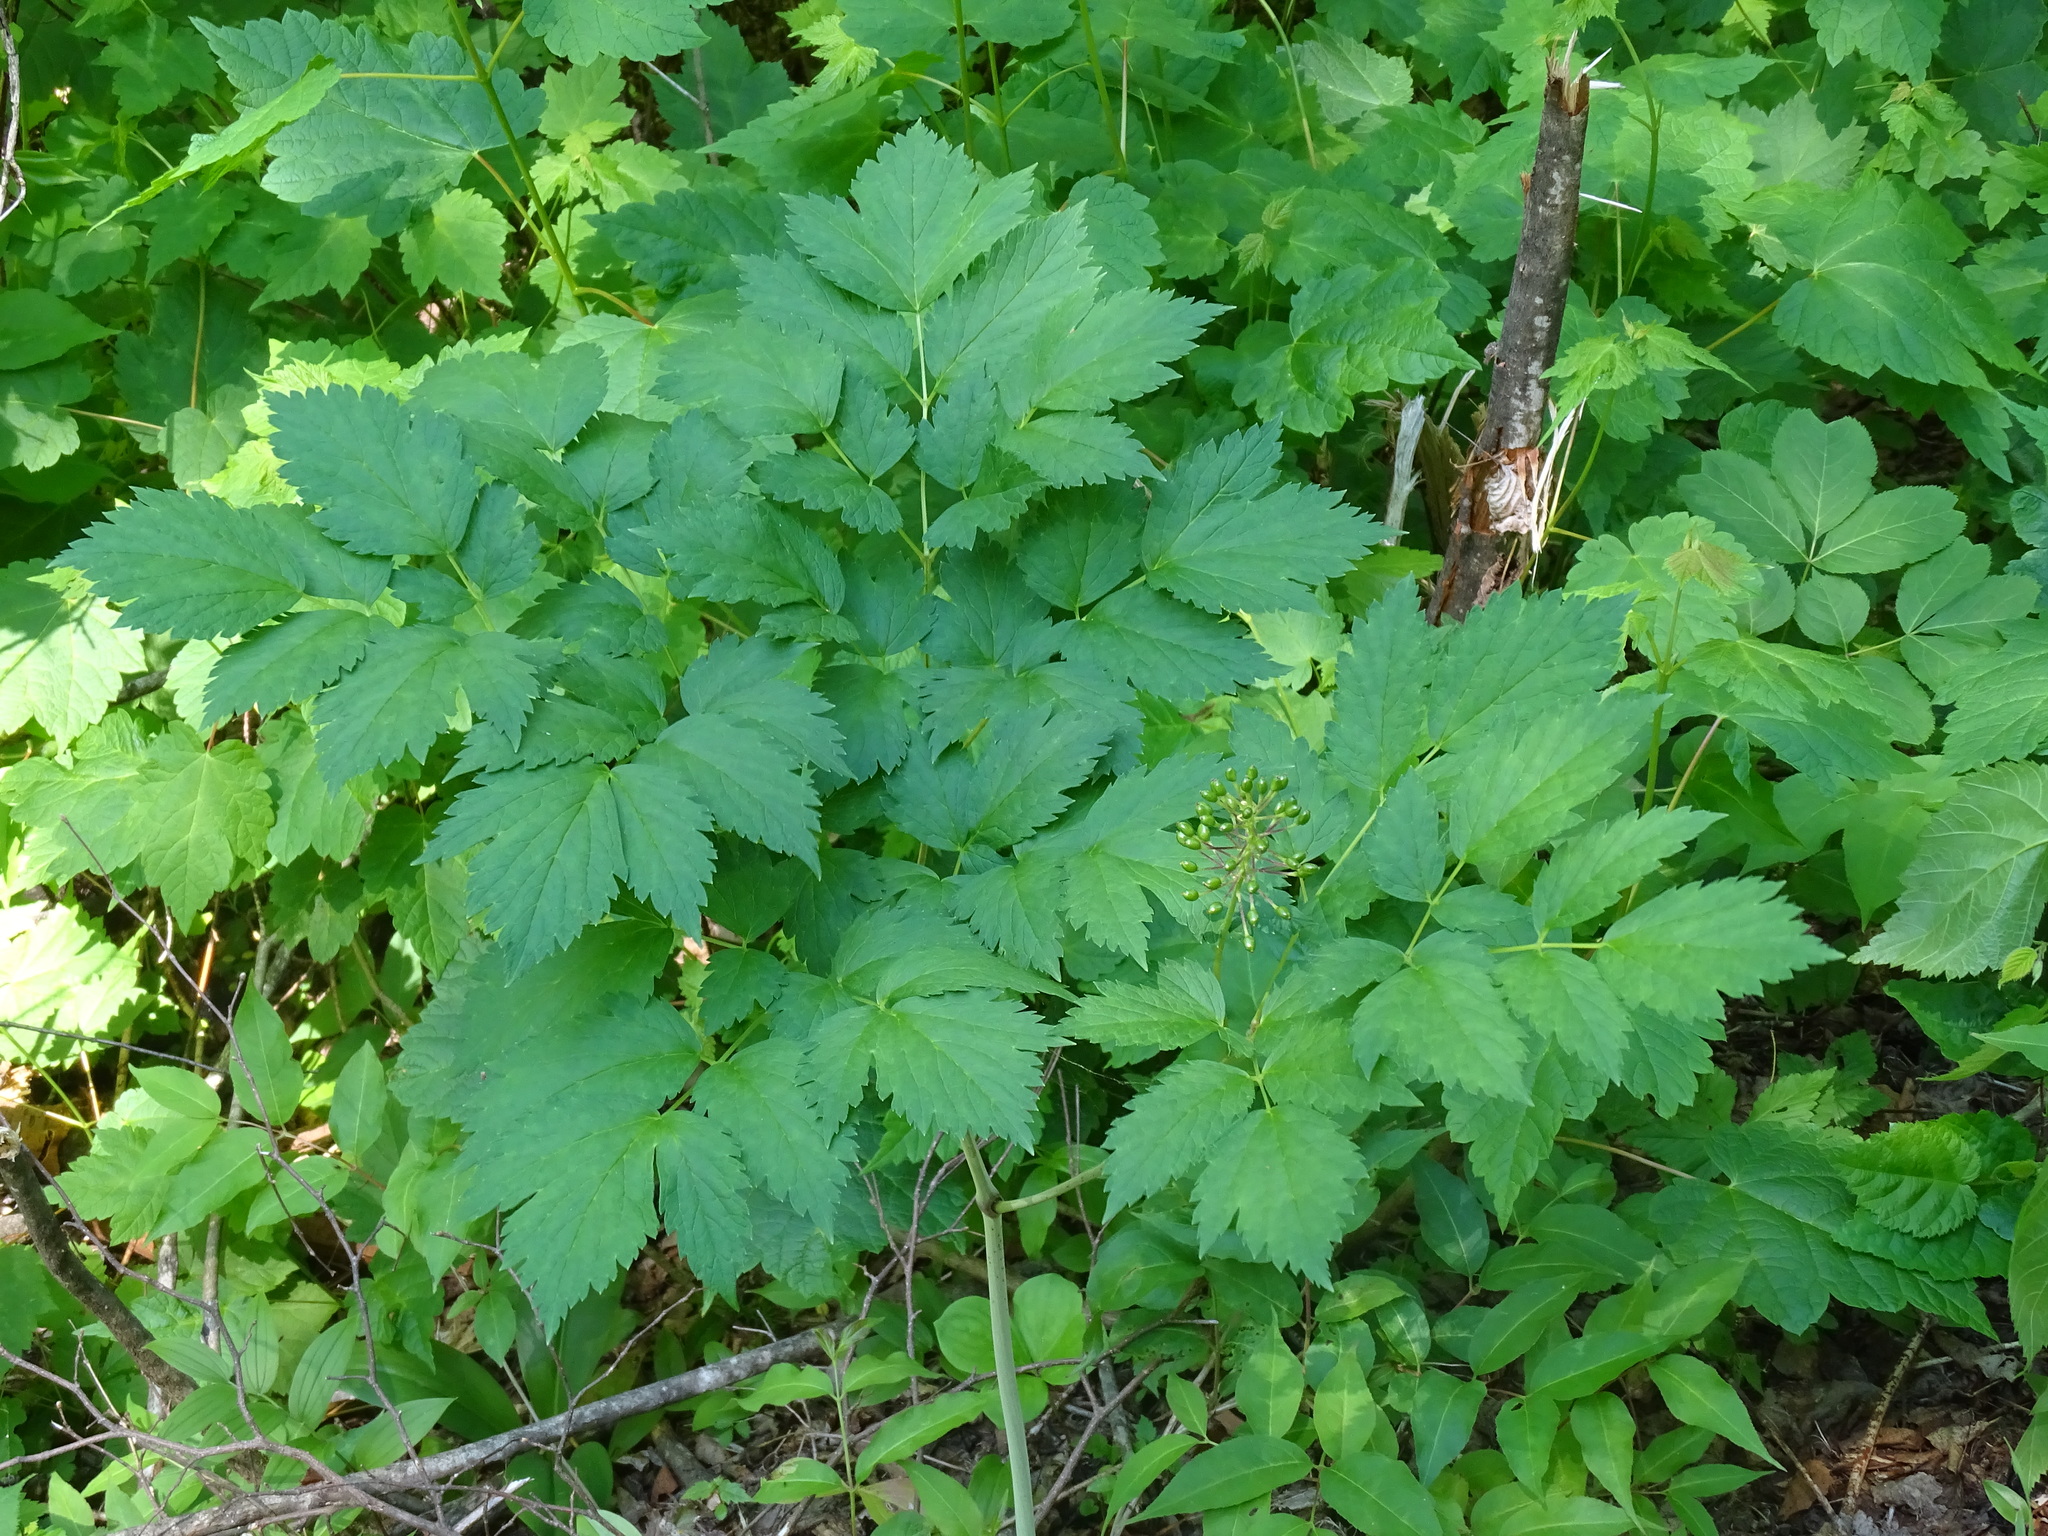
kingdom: Plantae
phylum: Tracheophyta
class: Magnoliopsida
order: Ranunculales
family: Ranunculaceae
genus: Actaea
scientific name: Actaea rubra
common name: Red baneberry
